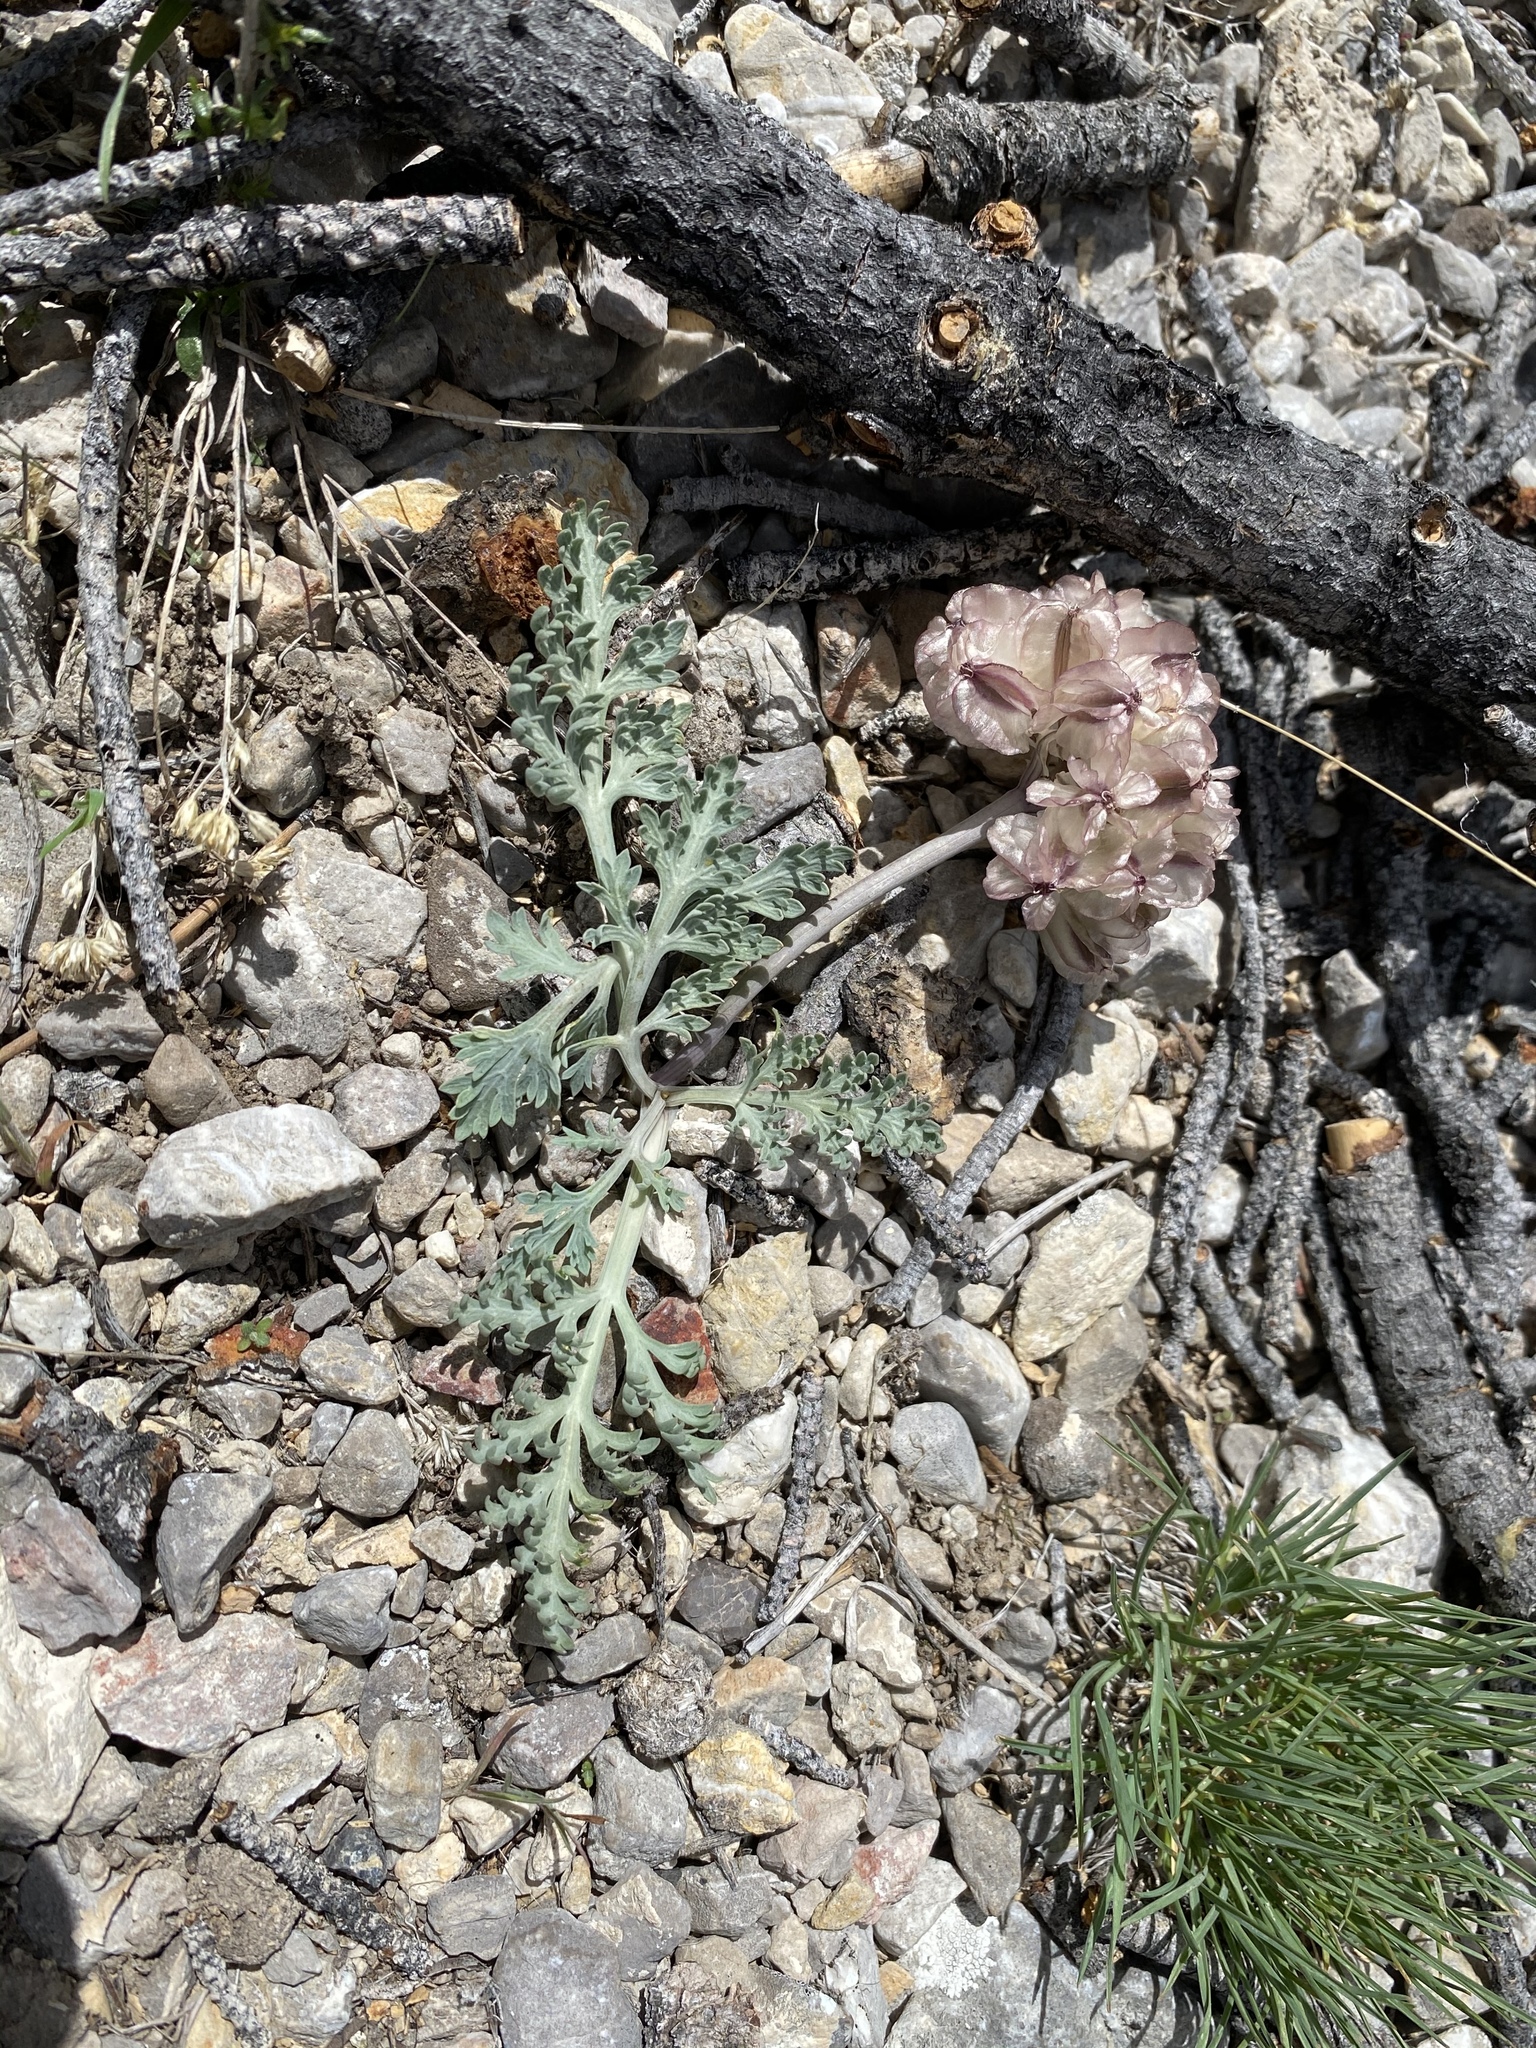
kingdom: Plantae
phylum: Tracheophyta
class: Magnoliopsida
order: Apiales
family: Apiaceae
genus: Vesper
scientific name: Vesper purpurascens
